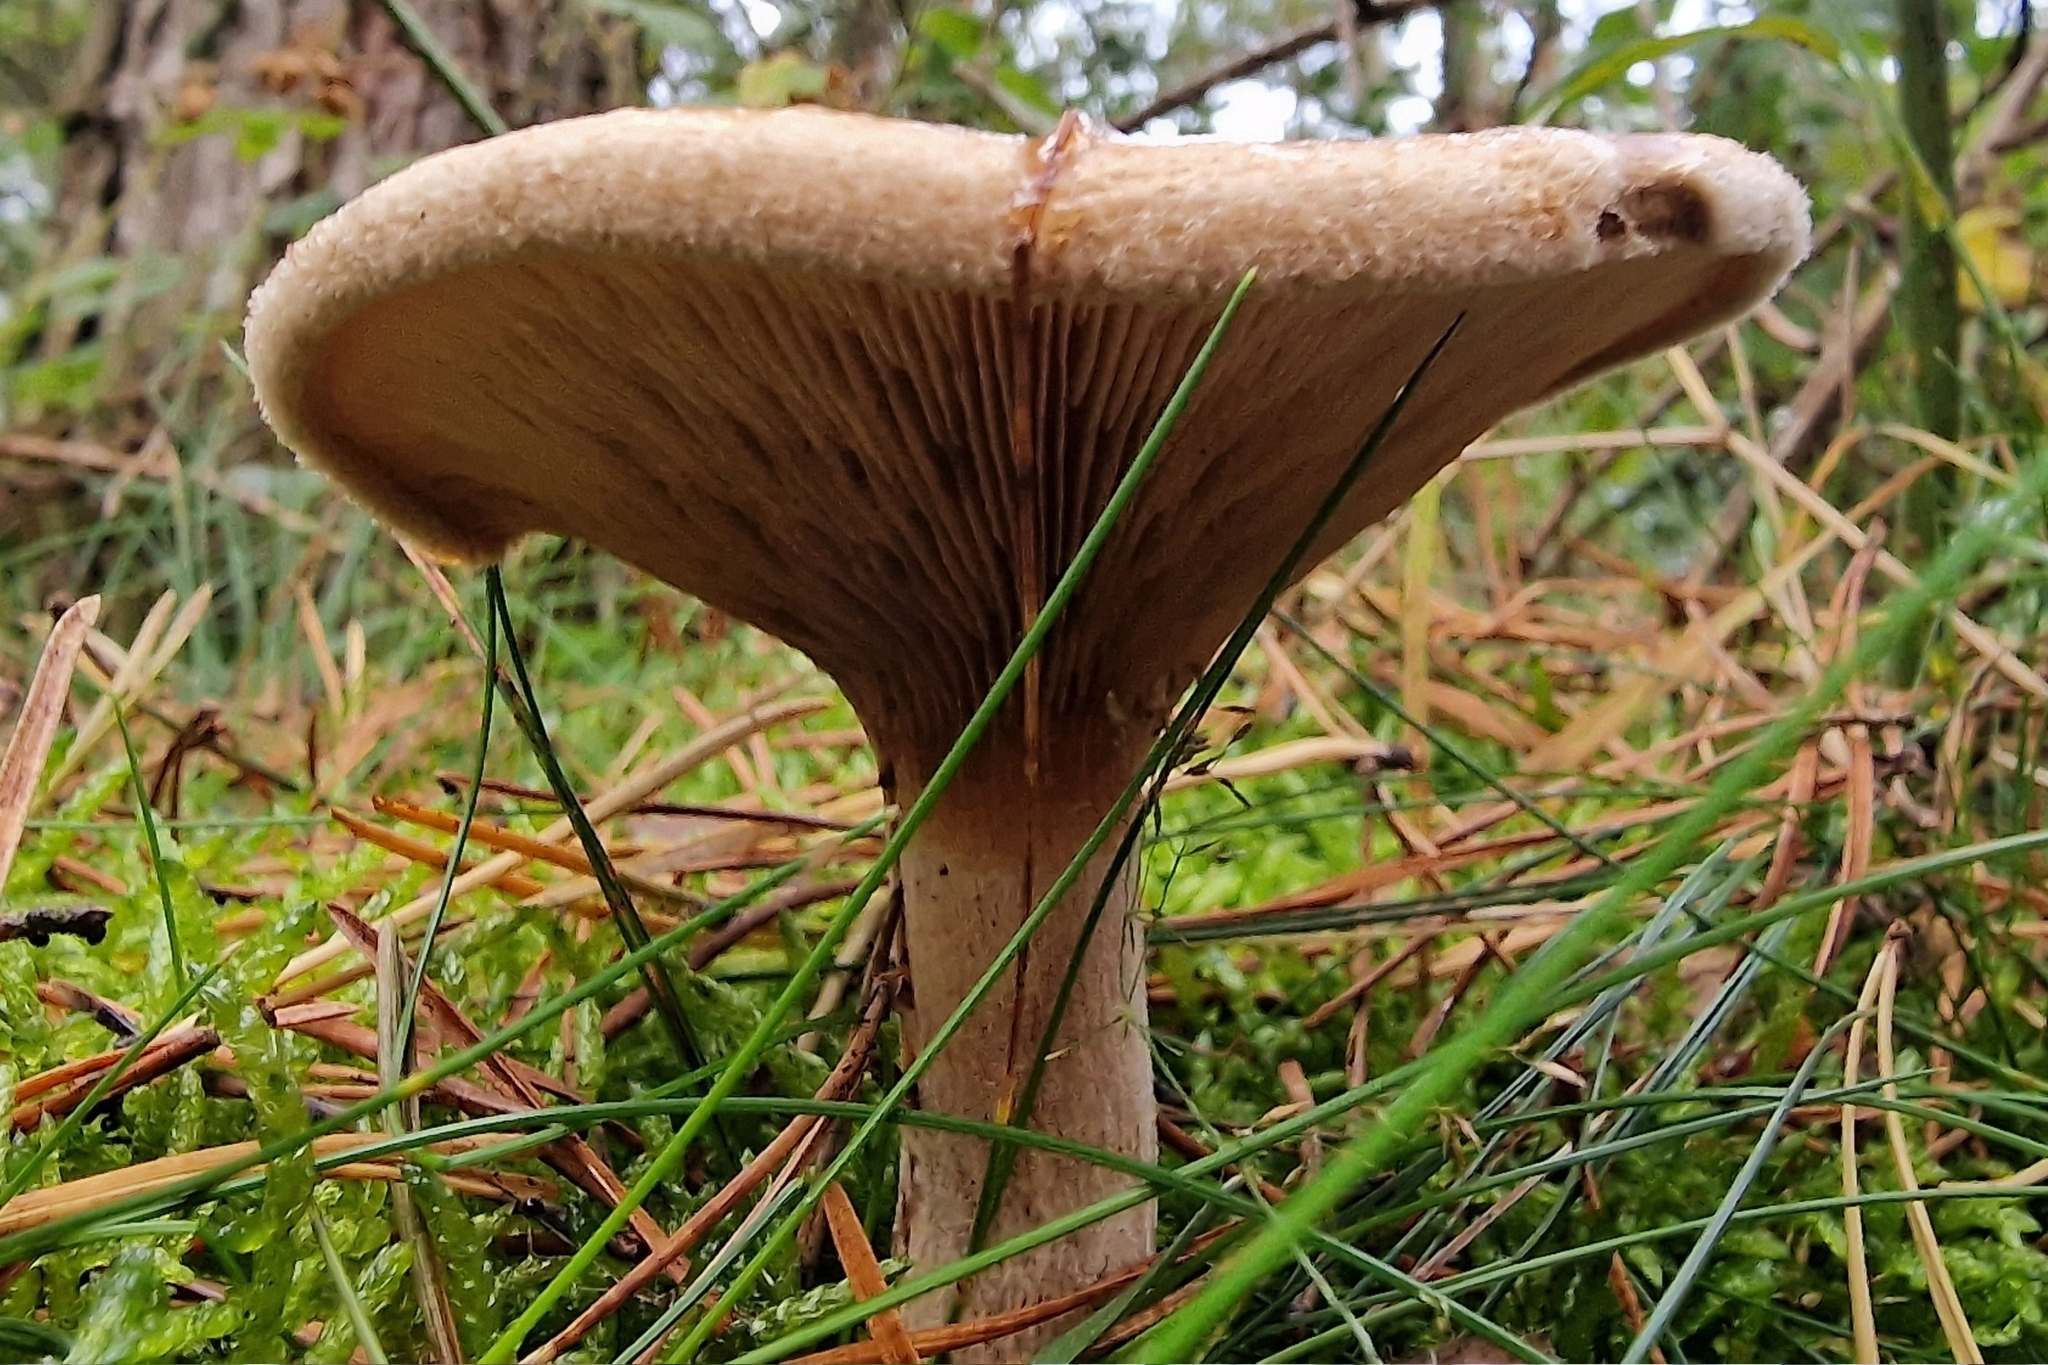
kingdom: Fungi
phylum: Basidiomycota
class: Agaricomycetes
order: Boletales
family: Paxillaceae
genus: Paxillus
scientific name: Paxillus involutus
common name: Brown roll rim
